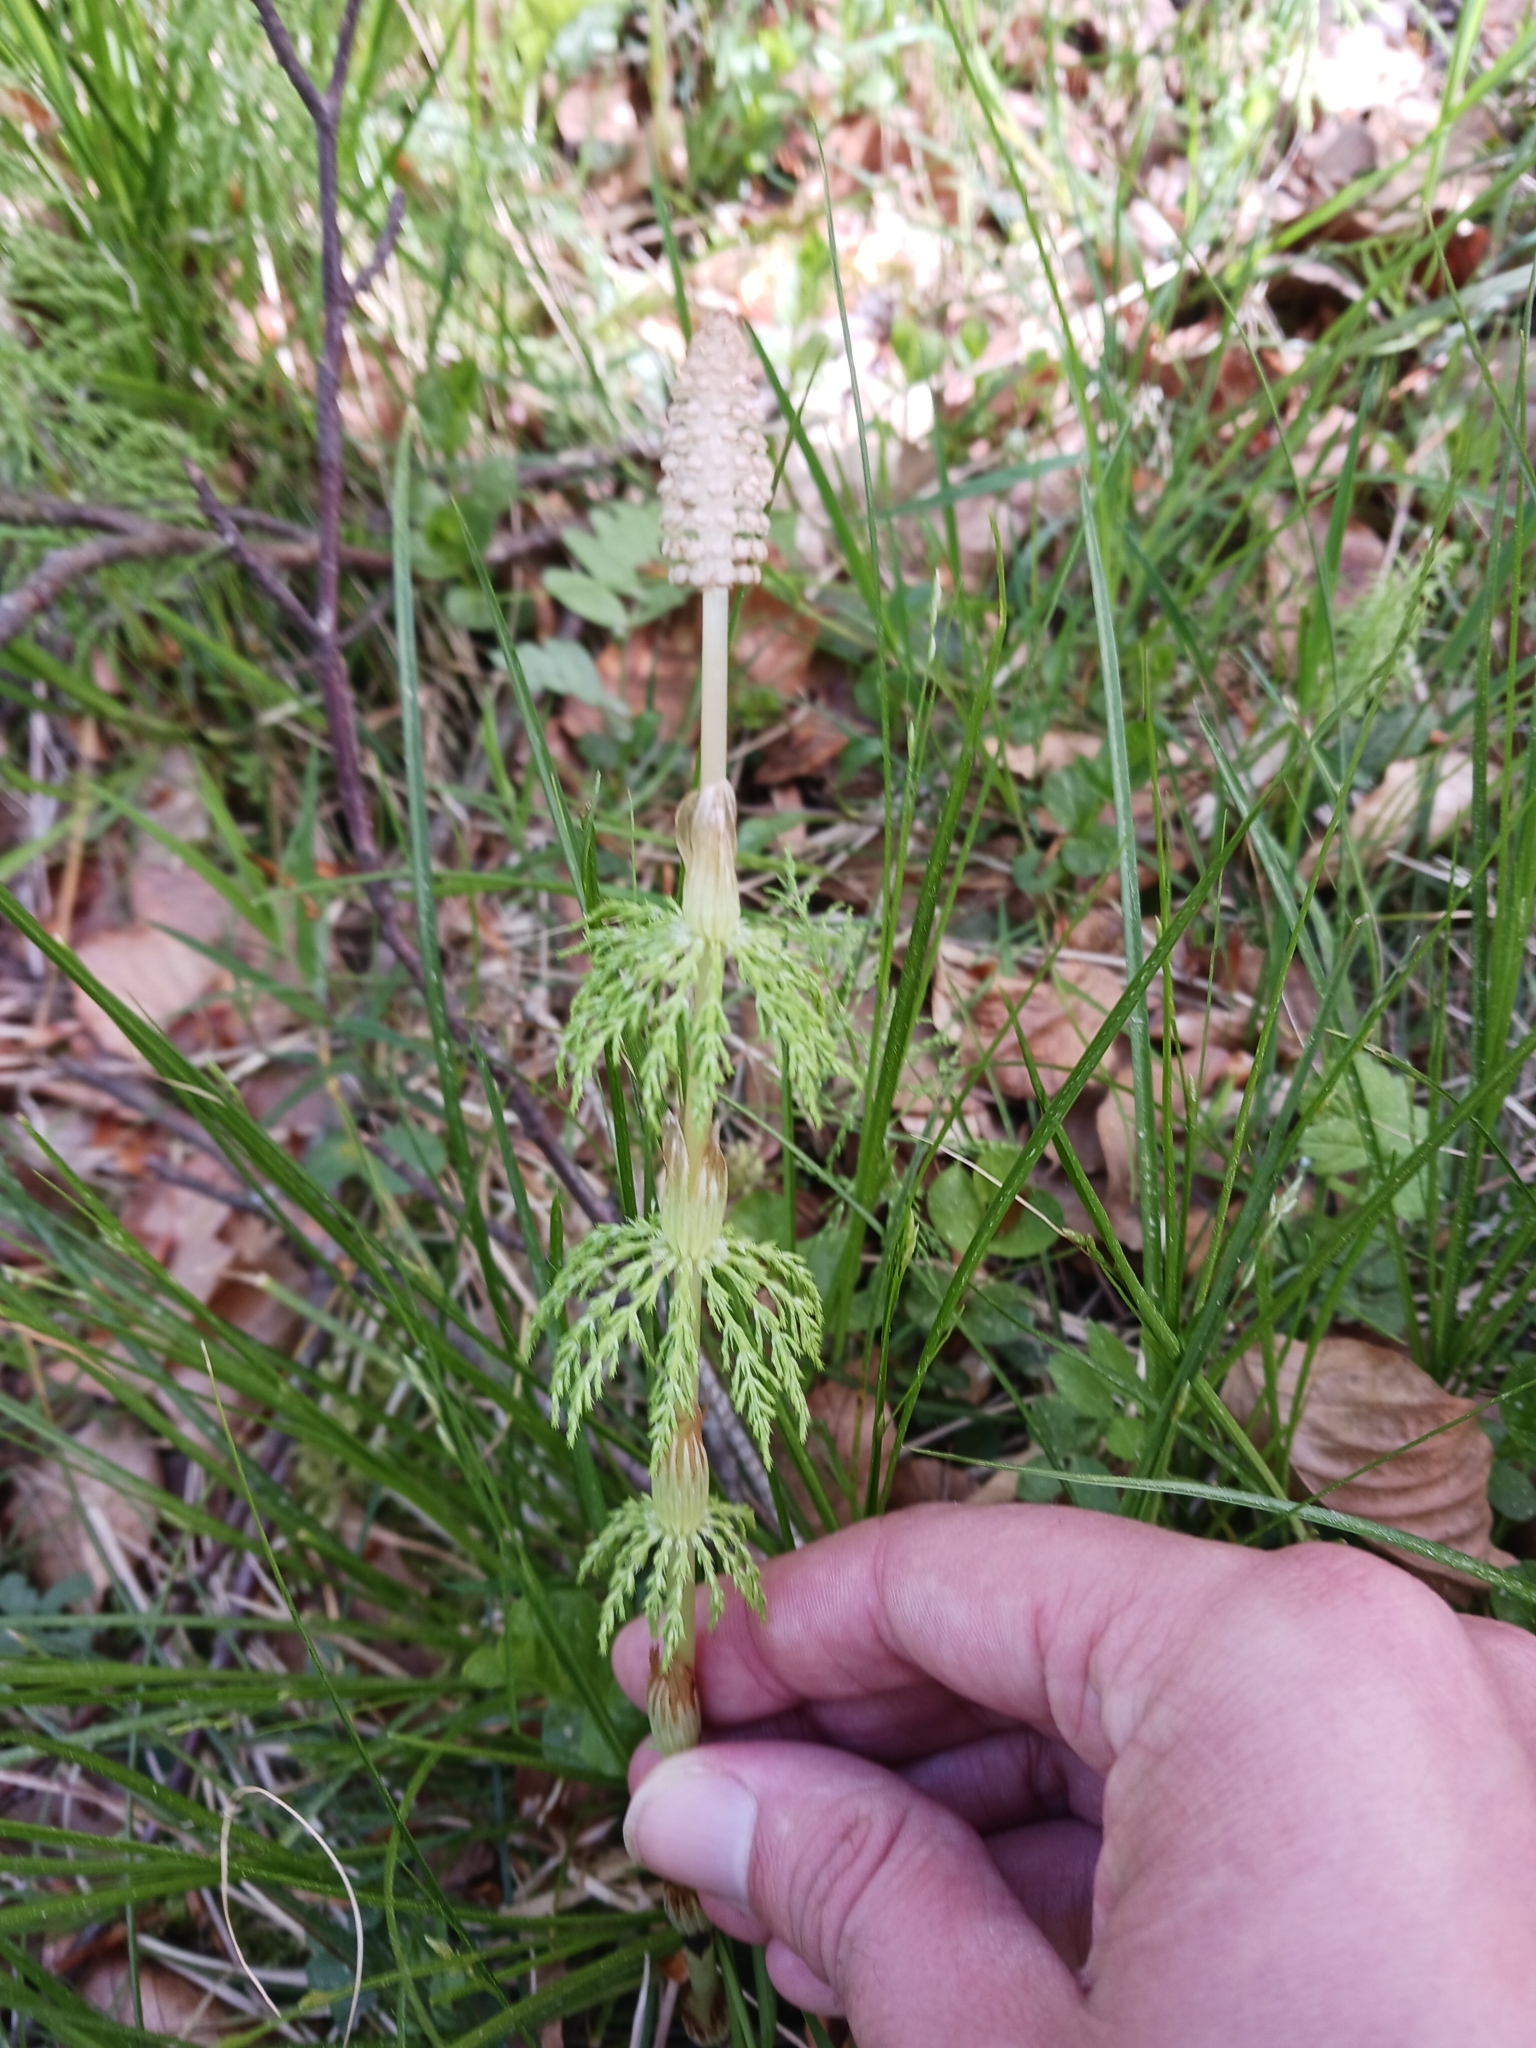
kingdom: Plantae
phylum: Tracheophyta
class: Polypodiopsida
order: Equisetales
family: Equisetaceae
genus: Equisetum
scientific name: Equisetum sylvaticum
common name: Wood horsetail
